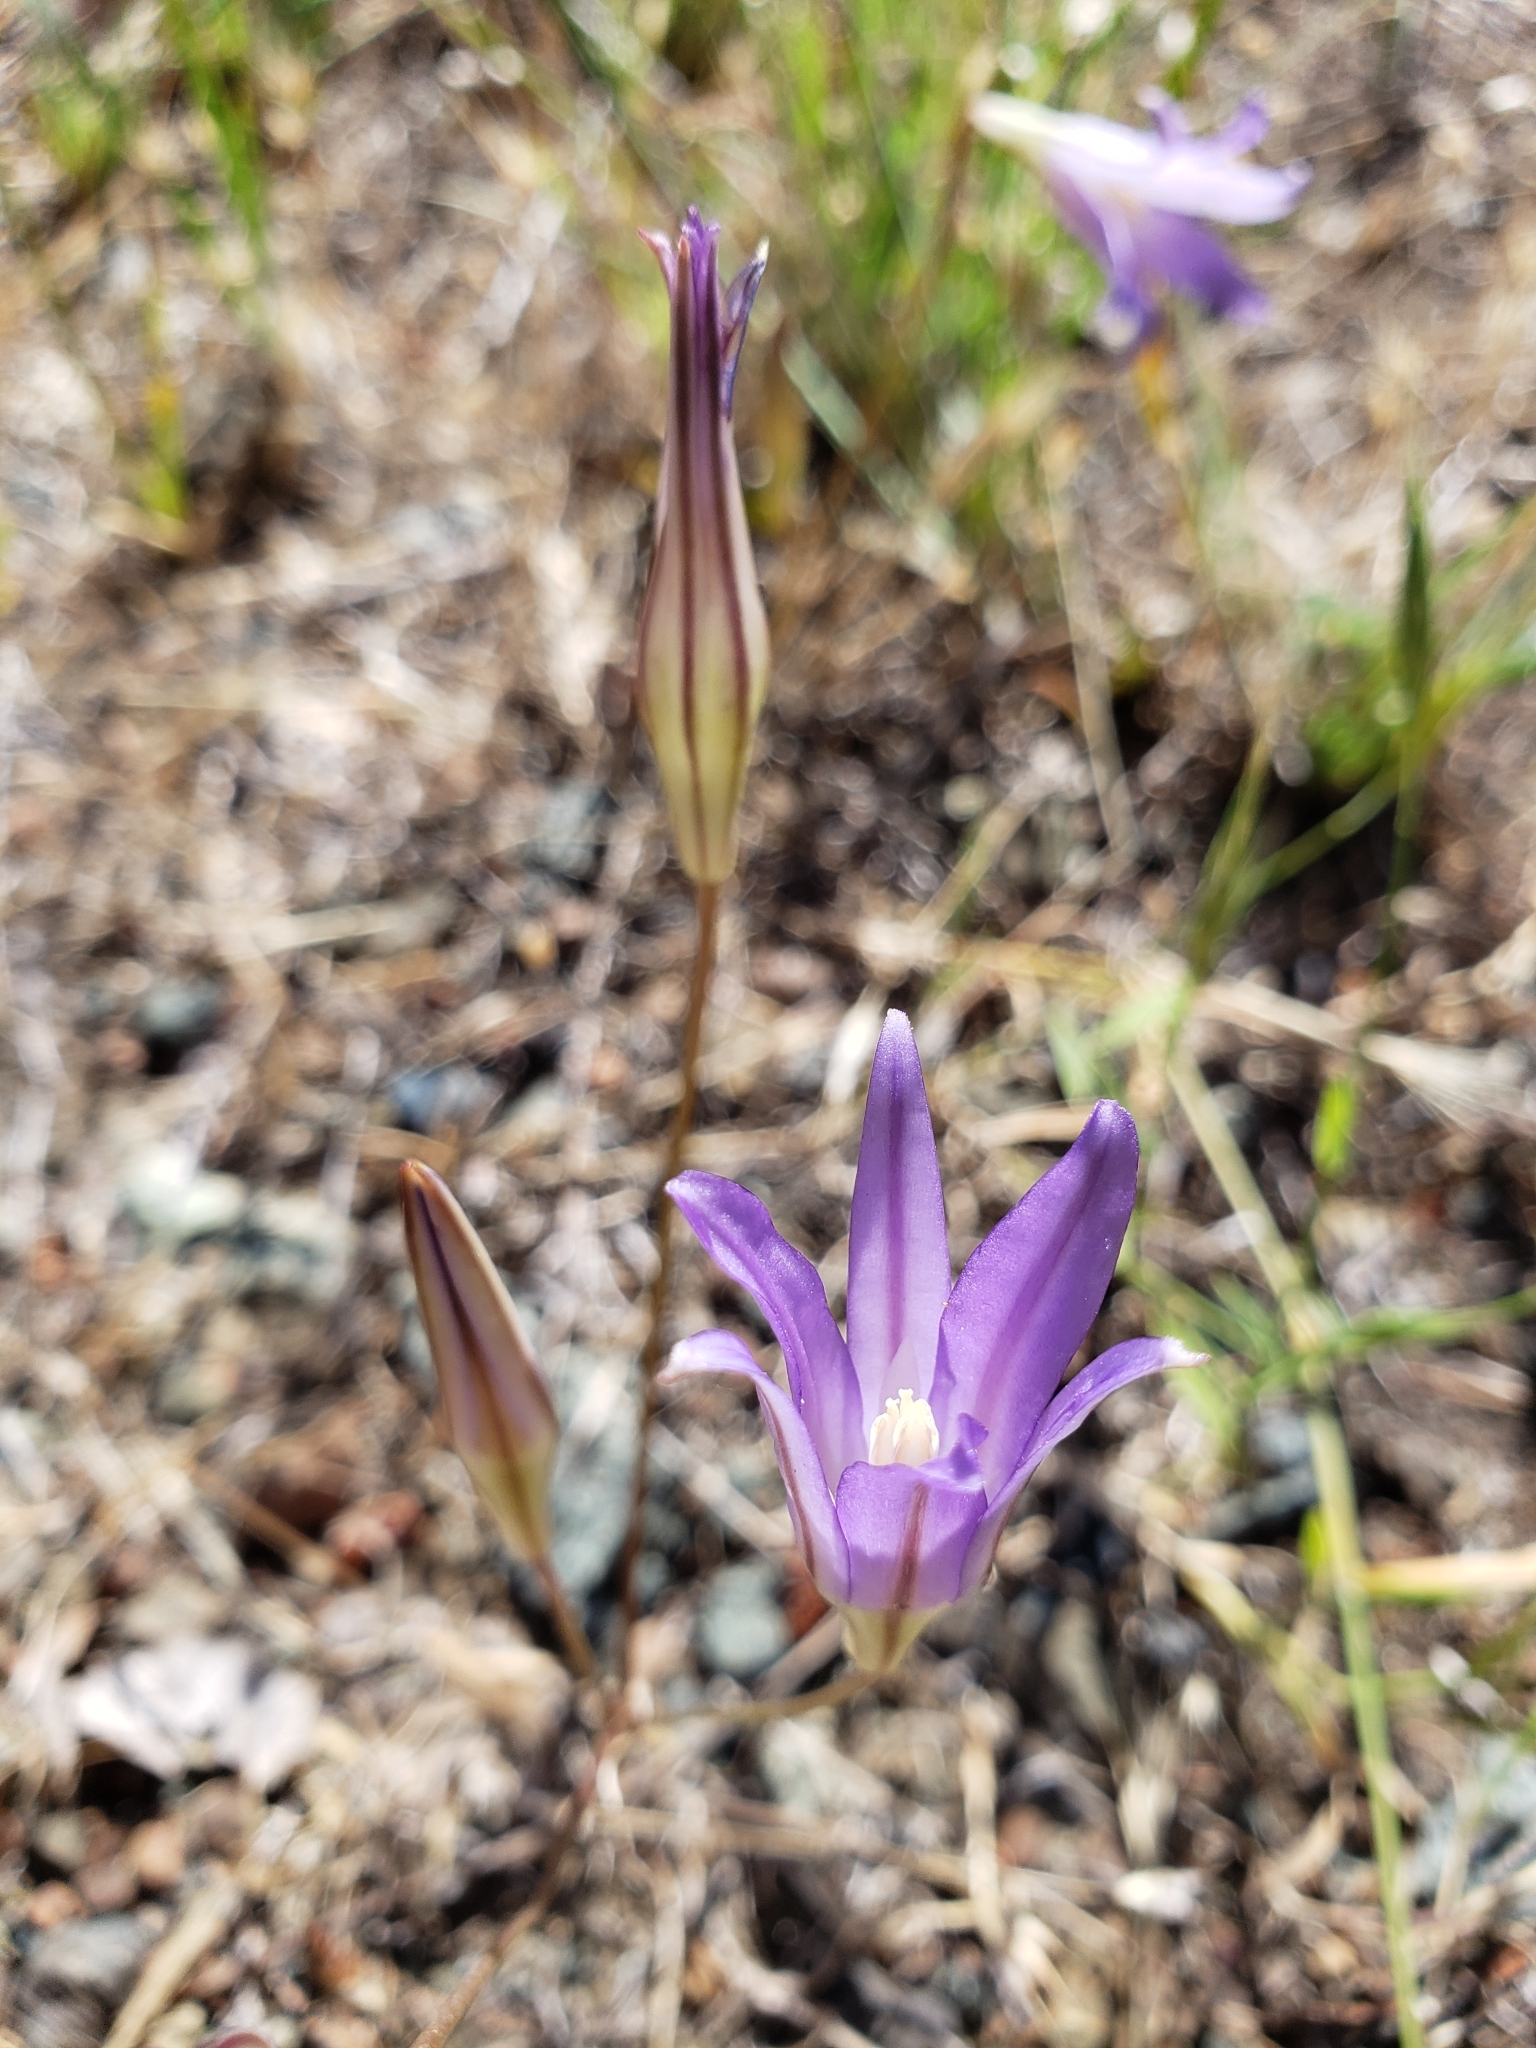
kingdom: Plantae
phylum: Tracheophyta
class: Liliopsida
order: Asparagales
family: Asparagaceae
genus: Brodiaea
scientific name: Brodiaea elegans
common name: Elegant cluster-lily
